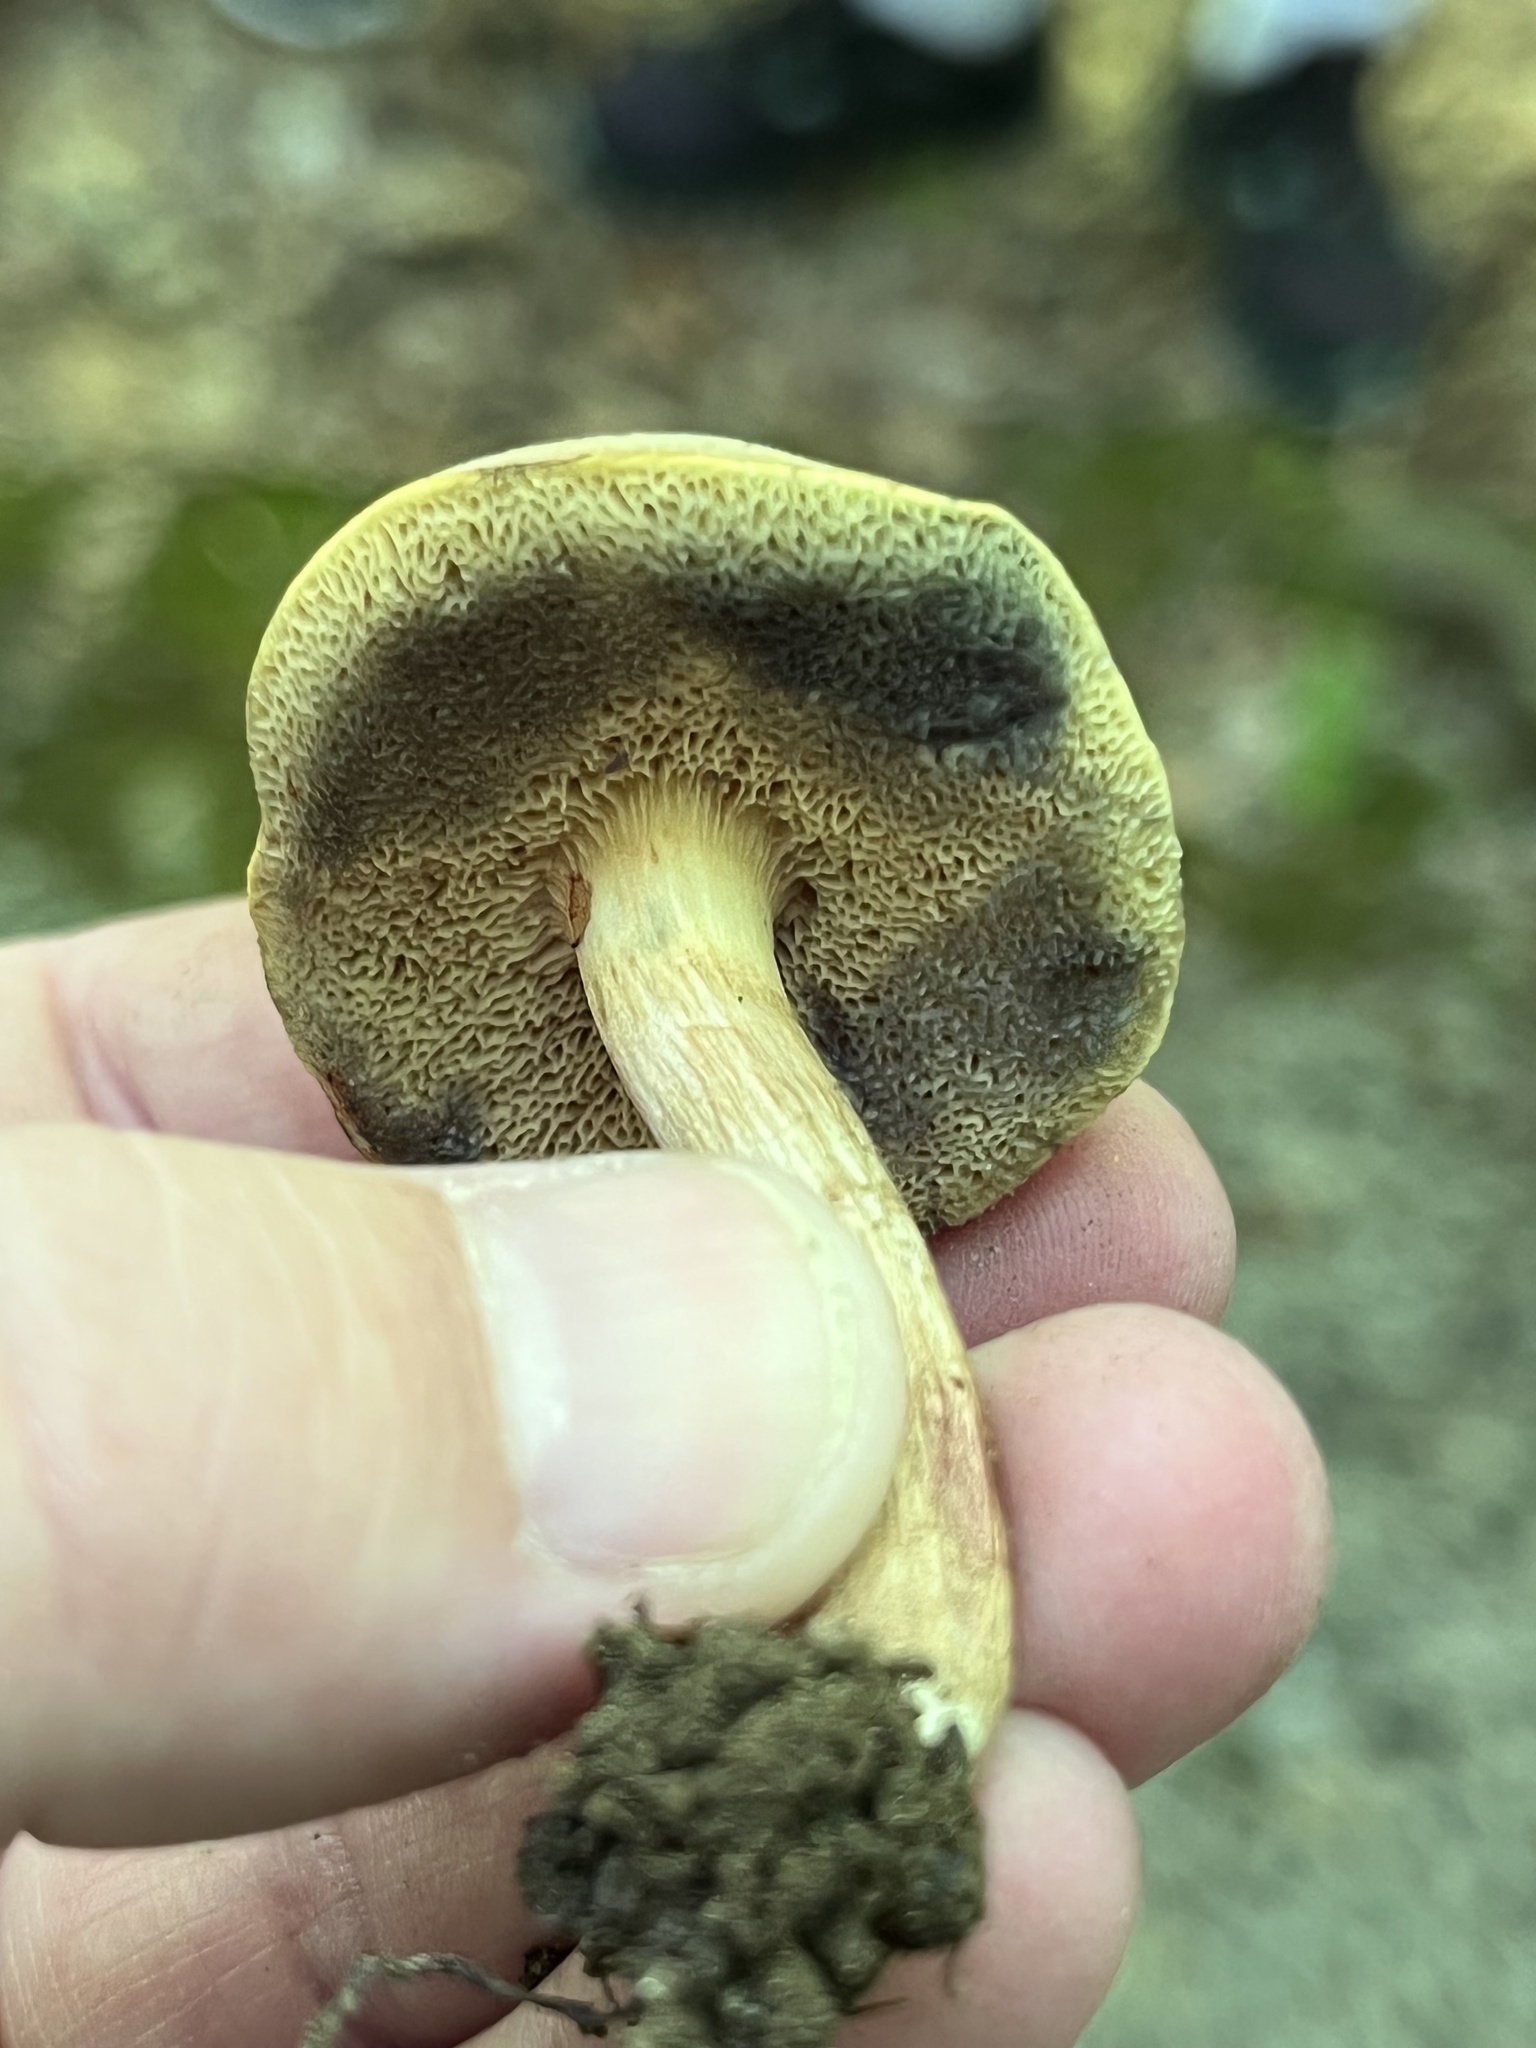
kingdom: Fungi
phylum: Basidiomycota
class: Agaricomycetes
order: Boletales
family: Boletaceae
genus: Xerocomellus
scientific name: Xerocomellus chrysenteron
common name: Red-cracking bolete
